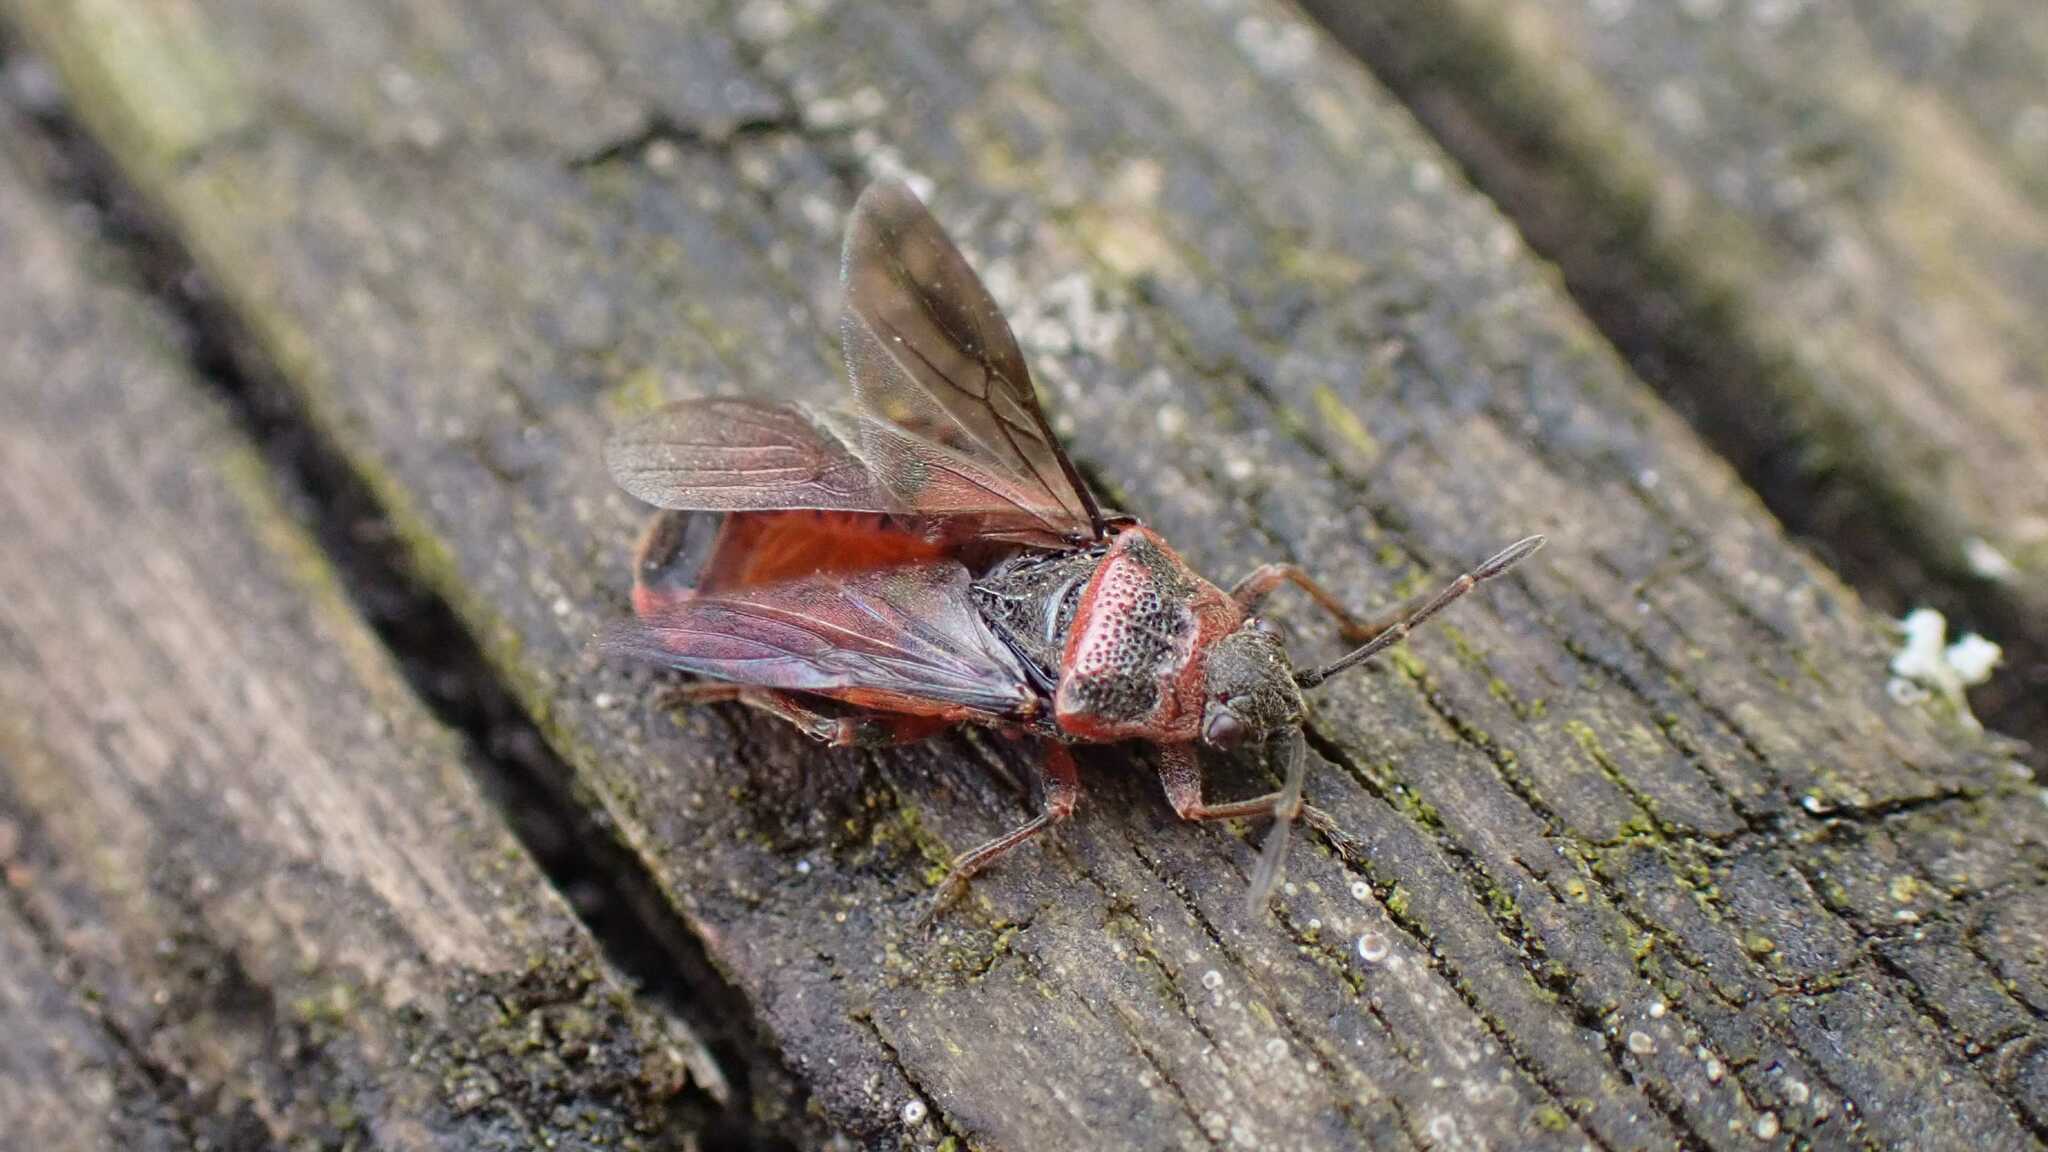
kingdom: Animalia
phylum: Arthropoda
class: Insecta
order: Hemiptera
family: Lygaeidae
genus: Arocatus
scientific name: Arocatus melanocephalus
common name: Lygaeid bug
